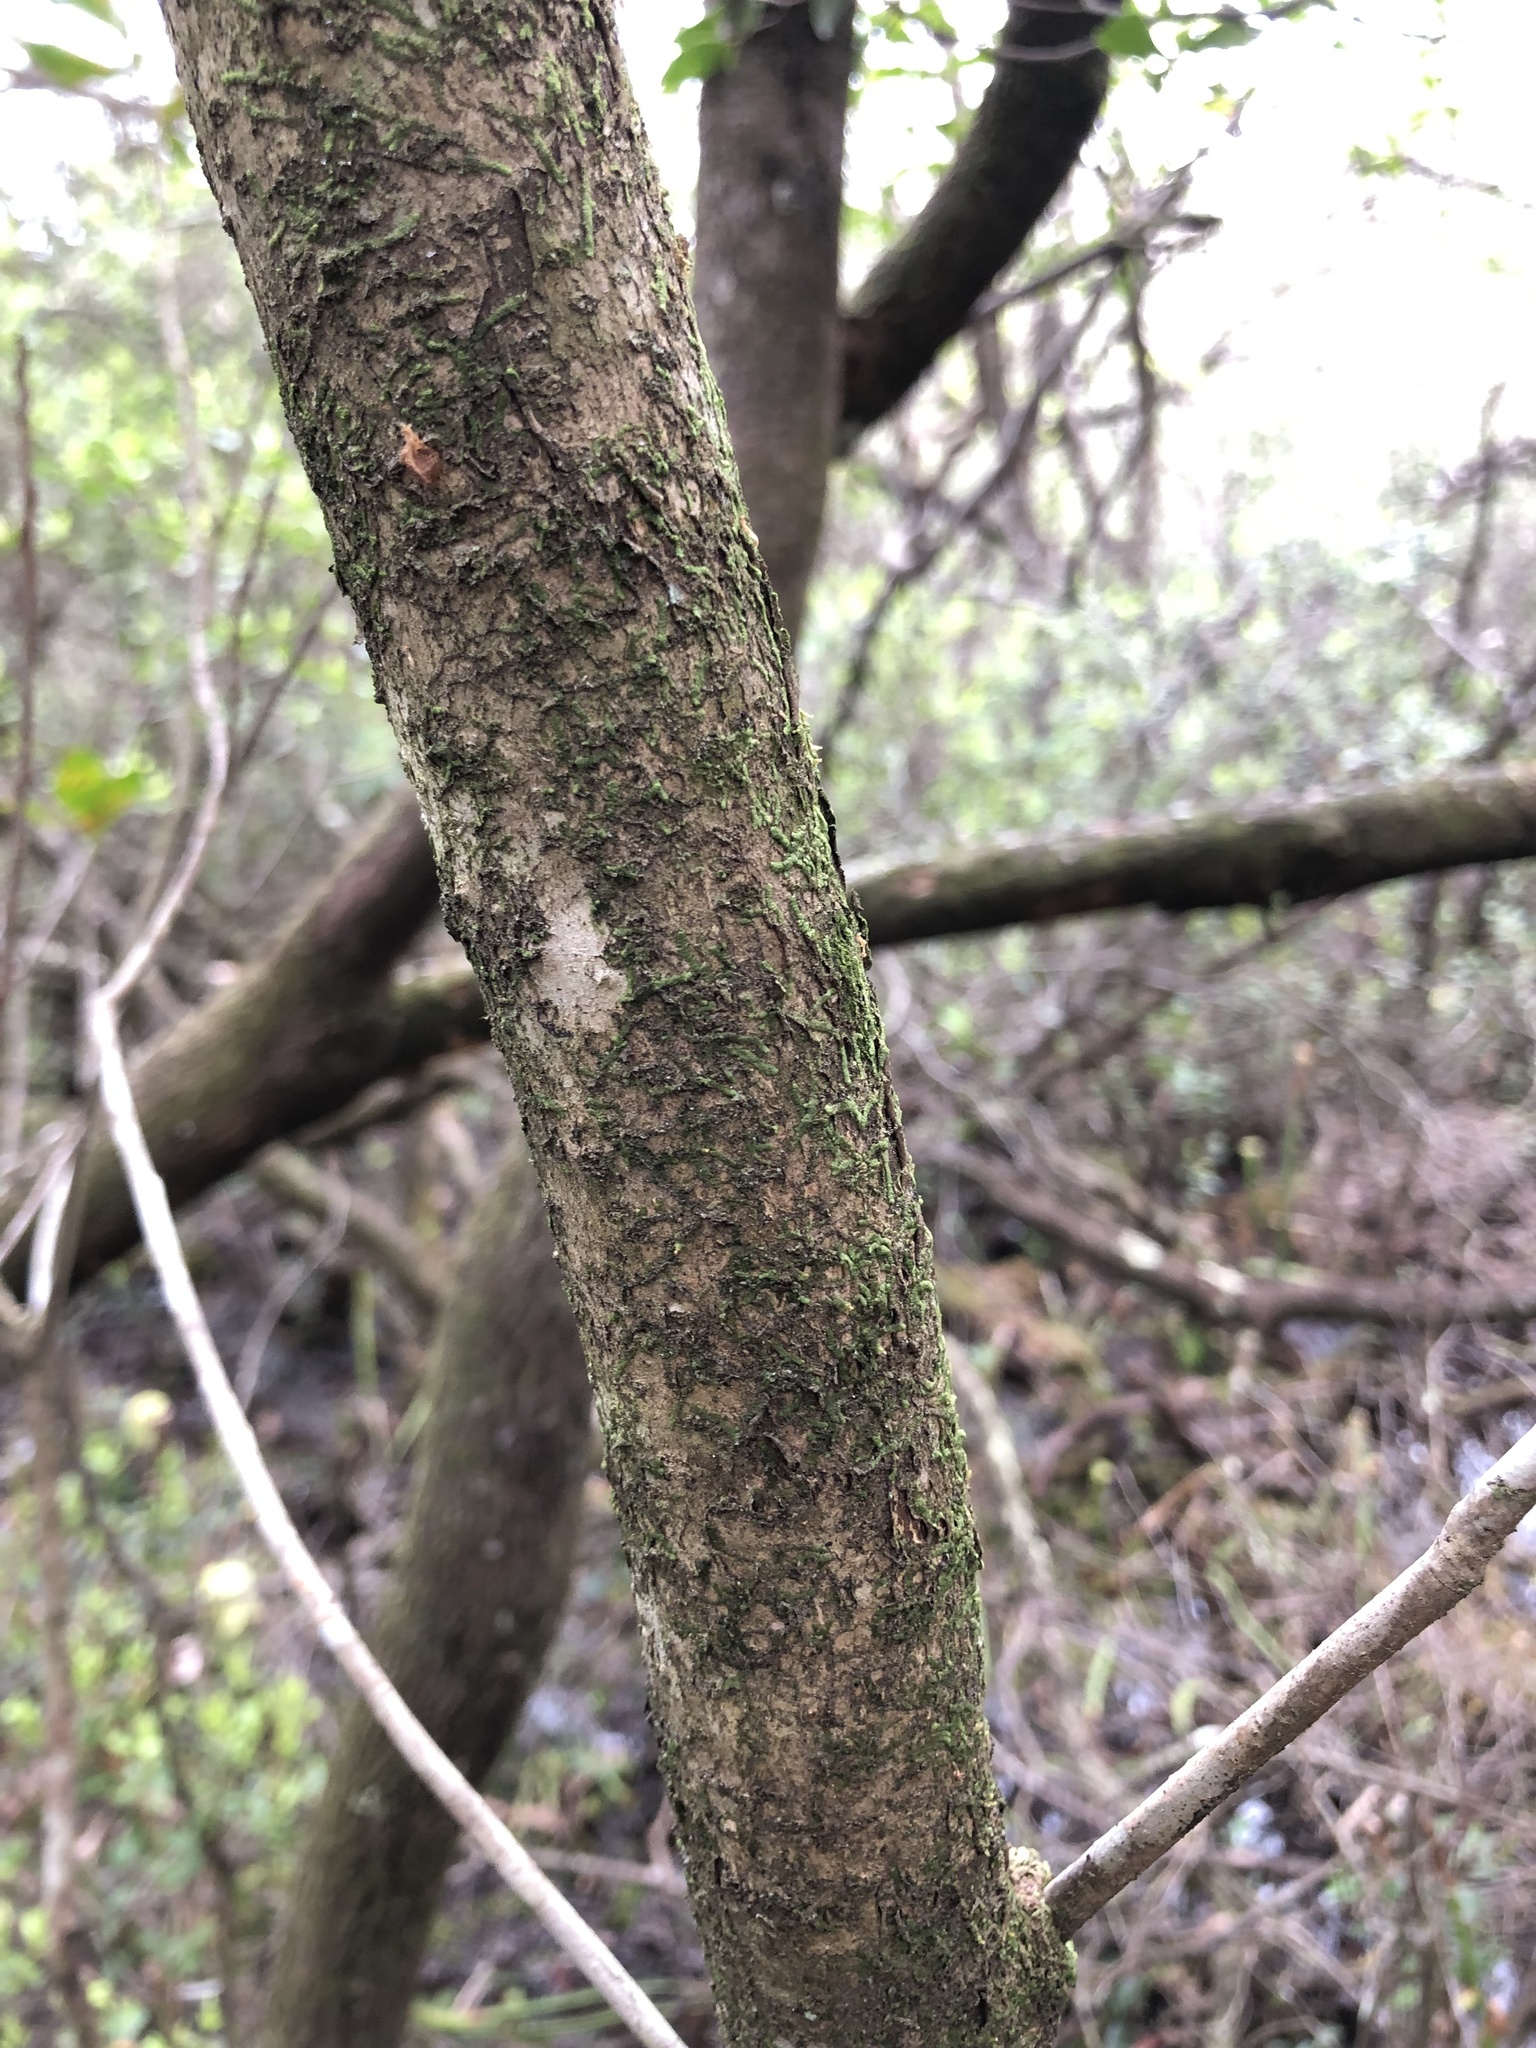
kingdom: Plantae
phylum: Tracheophyta
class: Magnoliopsida
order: Fagales
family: Myricaceae
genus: Morella
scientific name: Morella inodora
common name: Candle-berry
